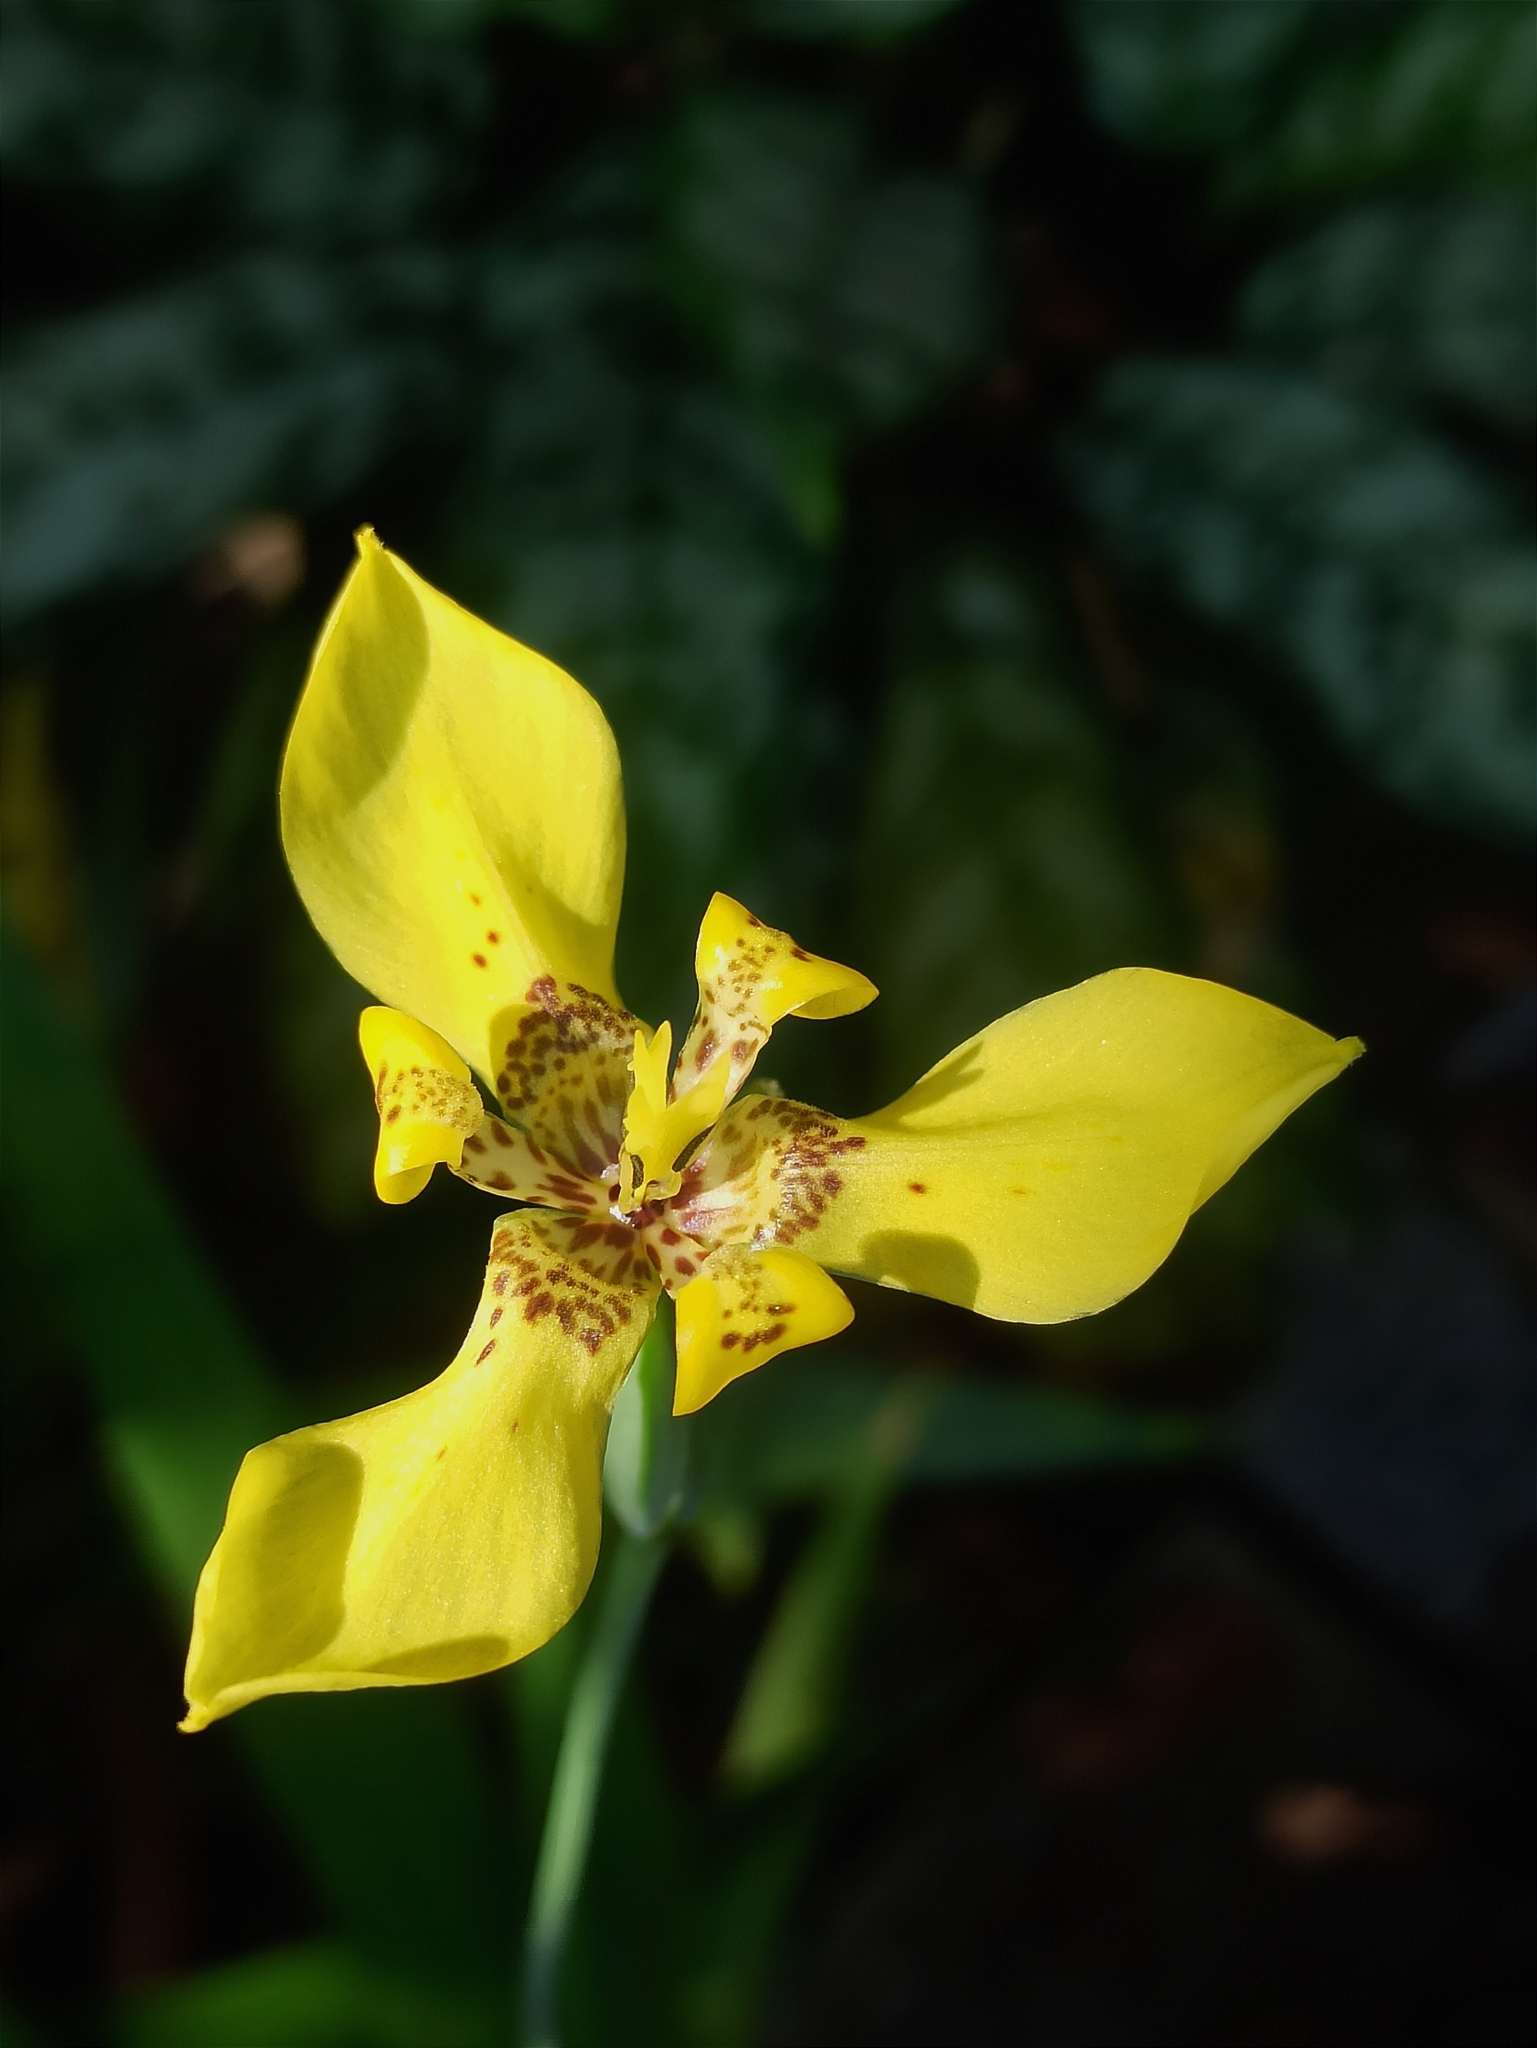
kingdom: Plantae
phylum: Tracheophyta
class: Liliopsida
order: Asparagales
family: Iridaceae
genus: Trimezia
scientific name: Trimezia steyermarkii
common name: Trimezia
